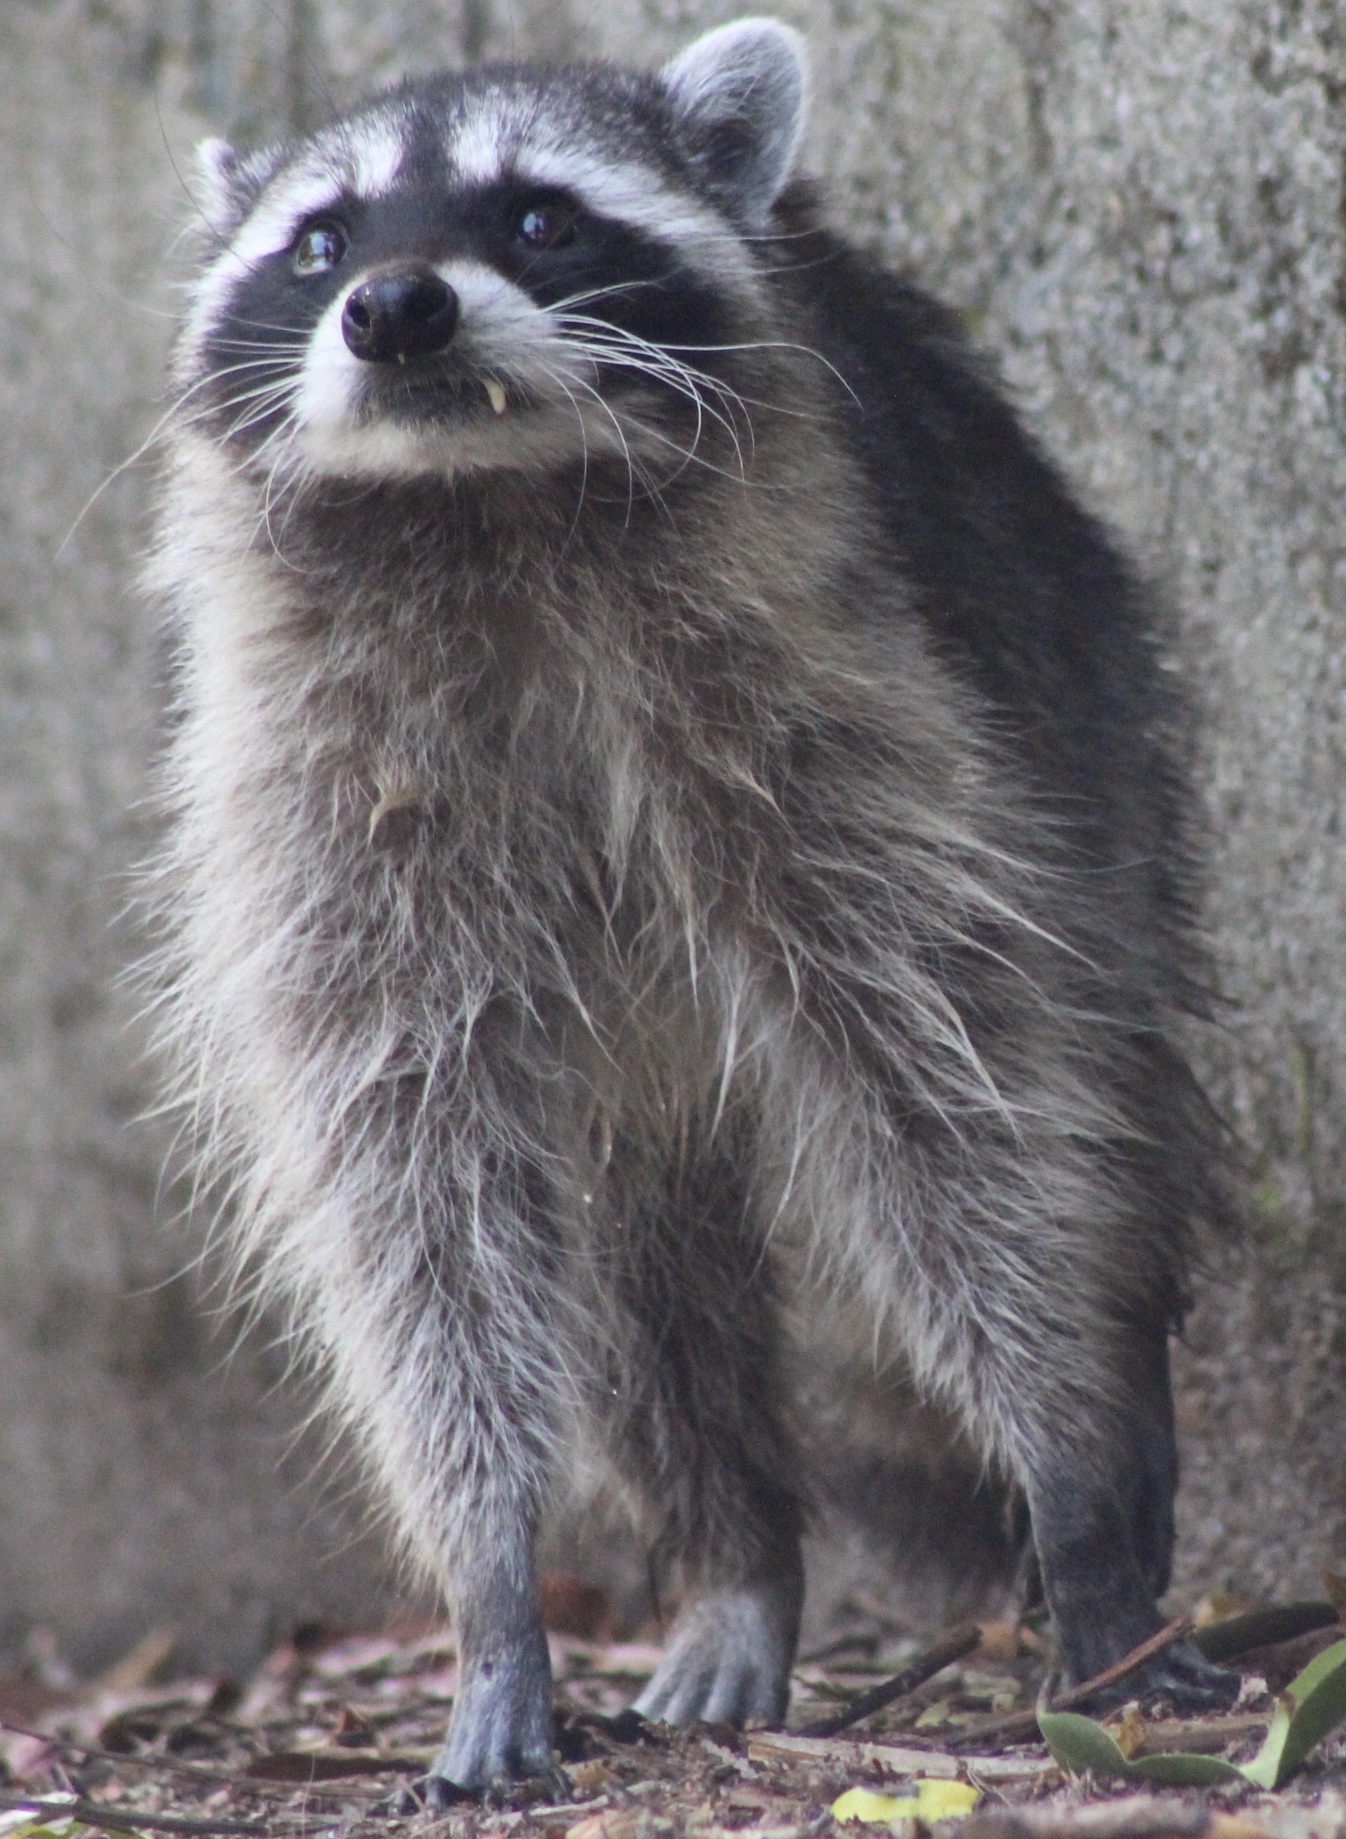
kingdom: Animalia
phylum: Chordata
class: Mammalia
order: Carnivora
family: Procyonidae
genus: Procyon
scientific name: Procyon lotor
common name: Raccoon
